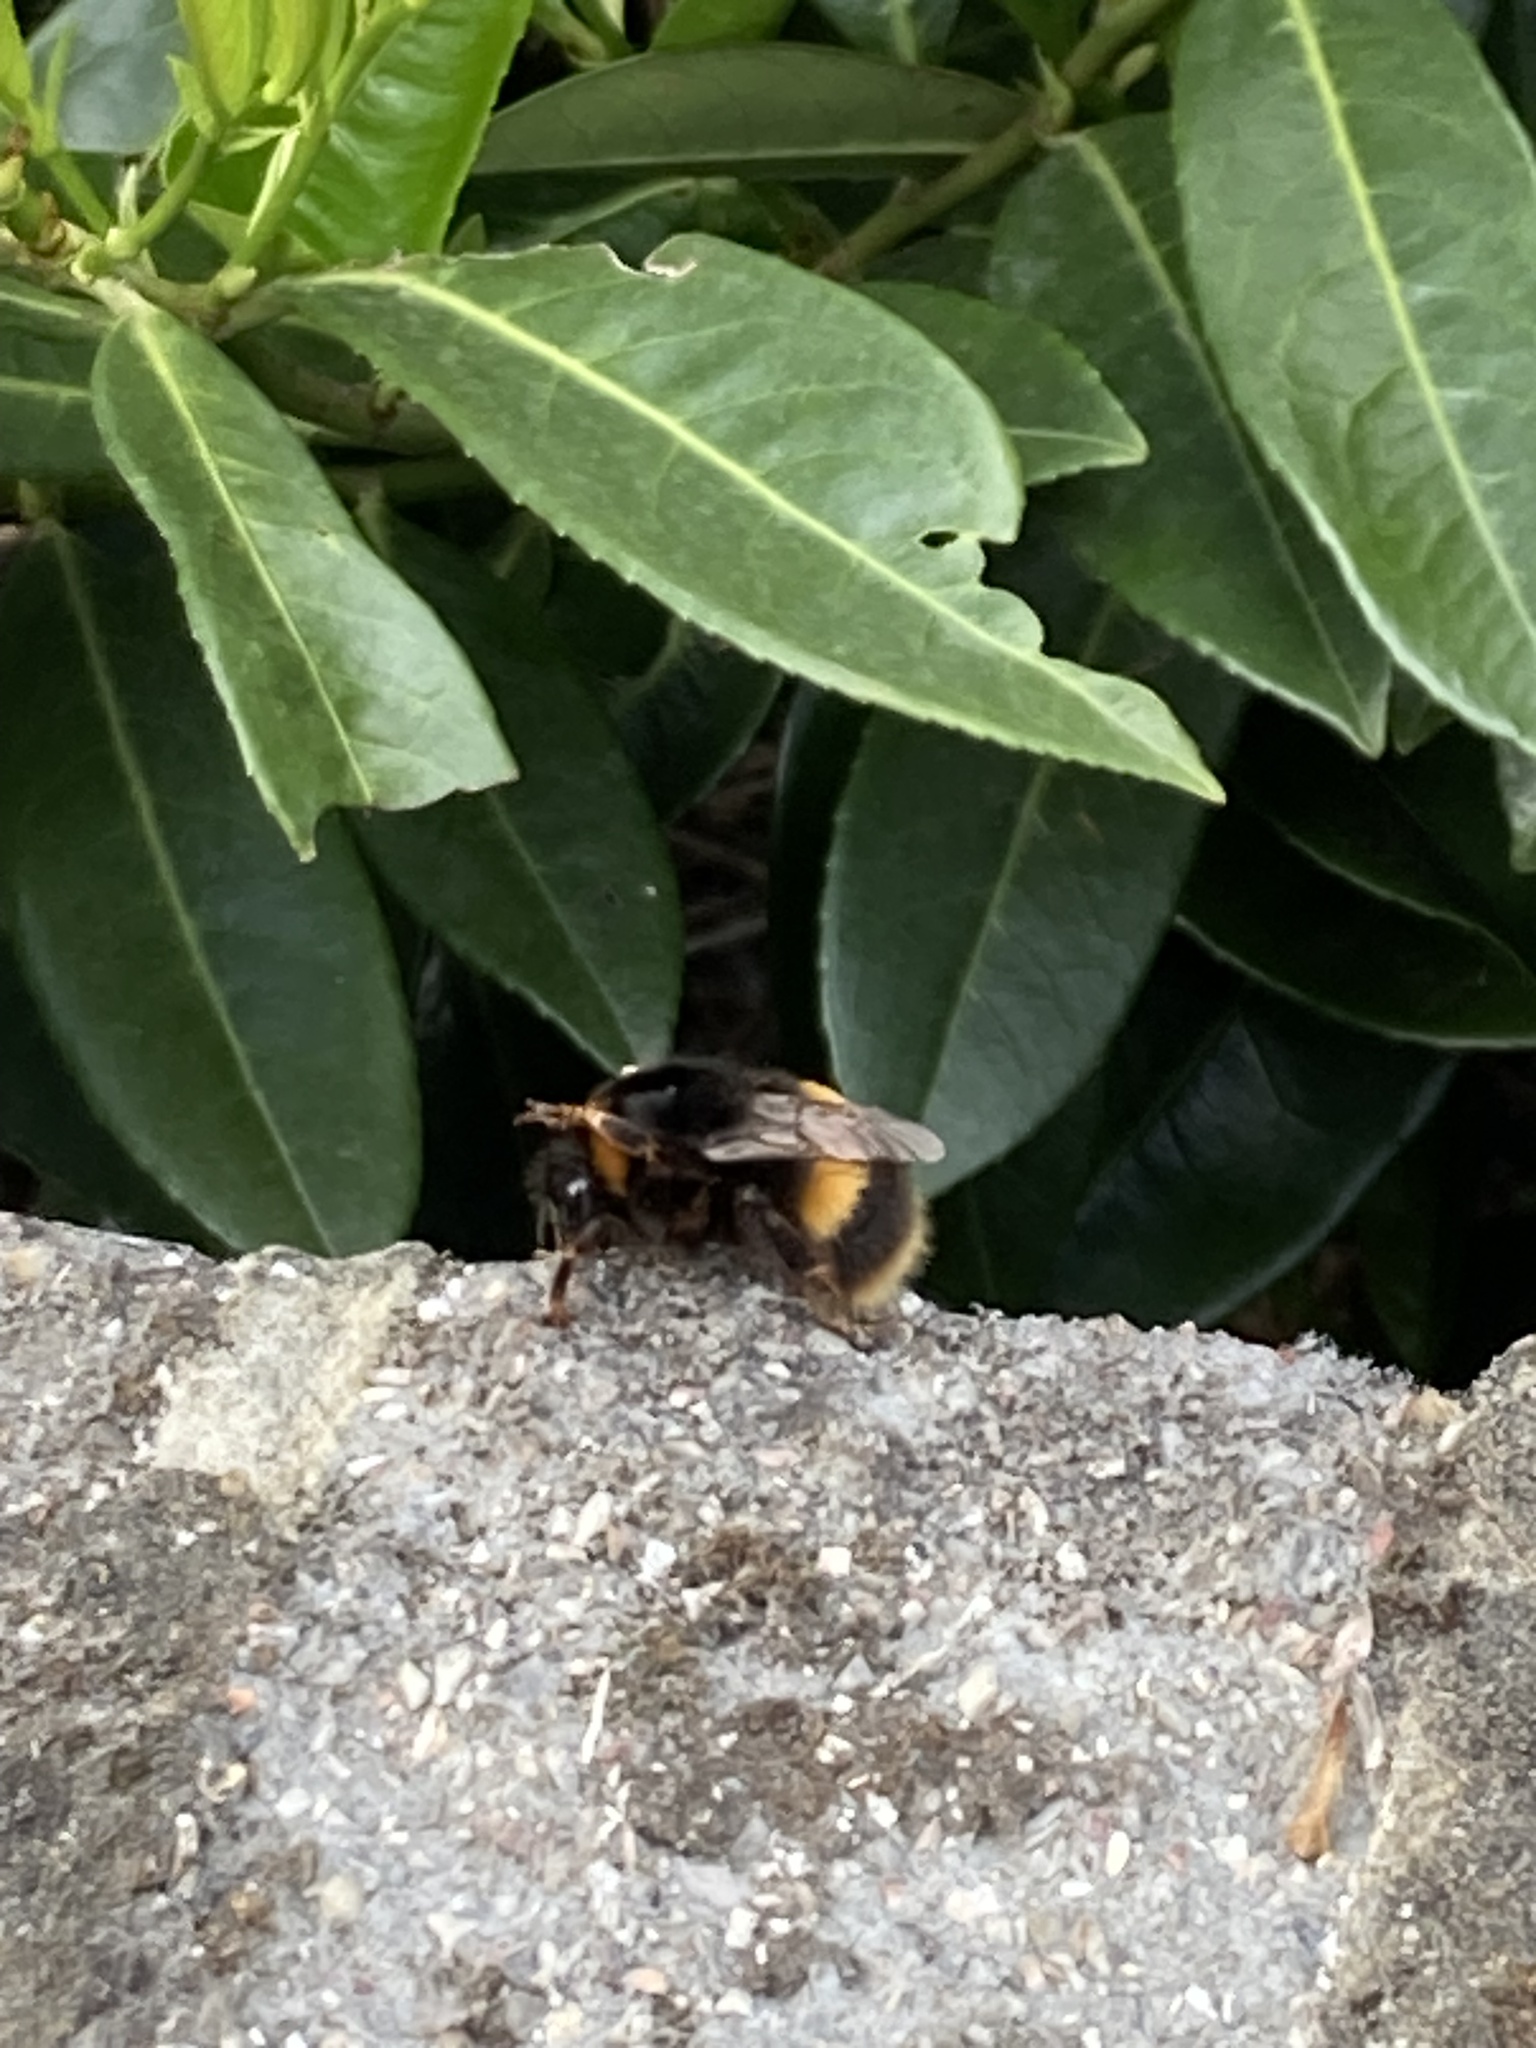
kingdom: Animalia
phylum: Arthropoda
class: Insecta
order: Hymenoptera
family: Apidae
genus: Bombus
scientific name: Bombus terrestris
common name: Buff-tailed bumblebee
